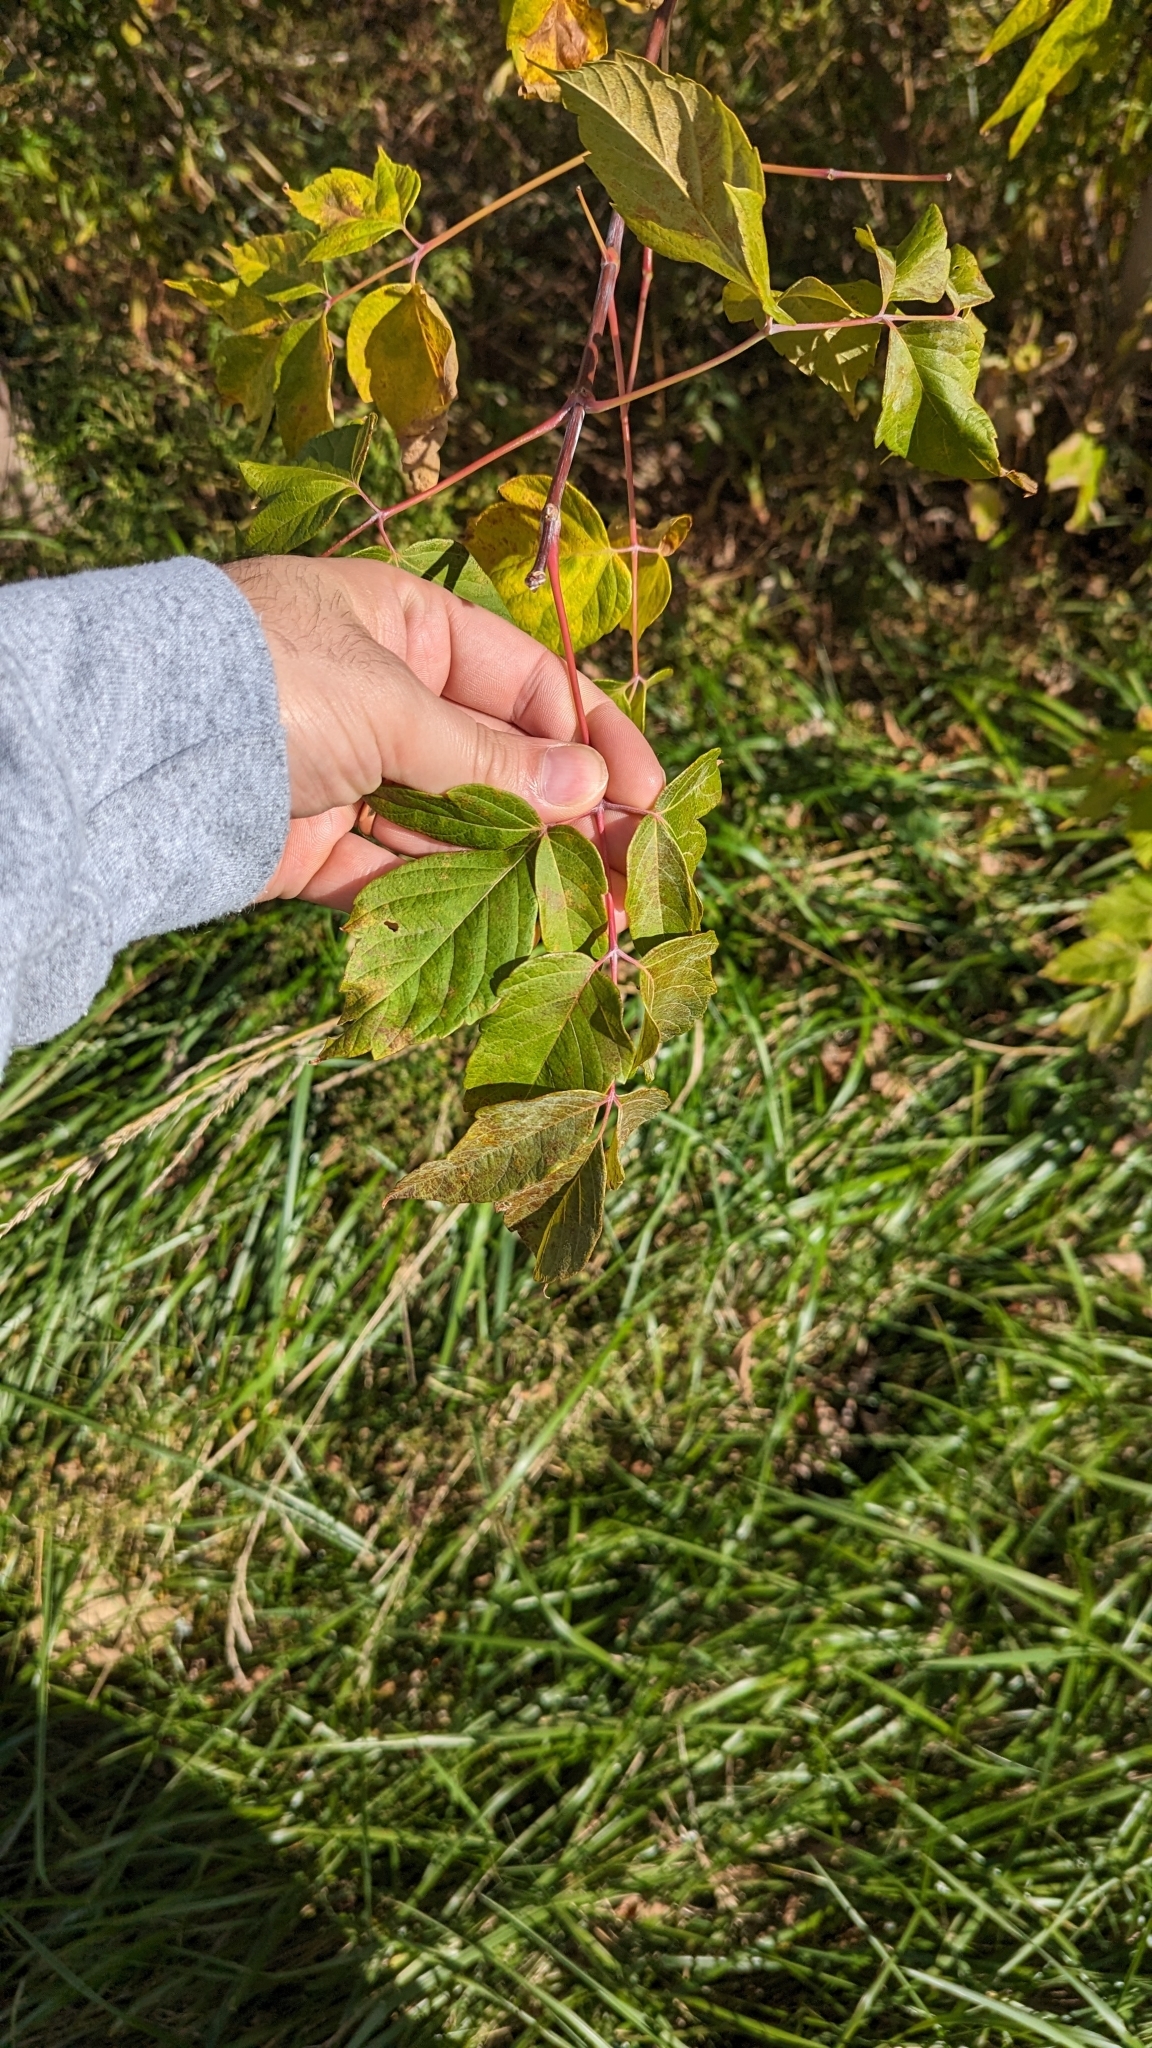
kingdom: Plantae
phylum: Tracheophyta
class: Magnoliopsida
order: Sapindales
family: Sapindaceae
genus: Acer
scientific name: Acer negundo
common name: Ashleaf maple
